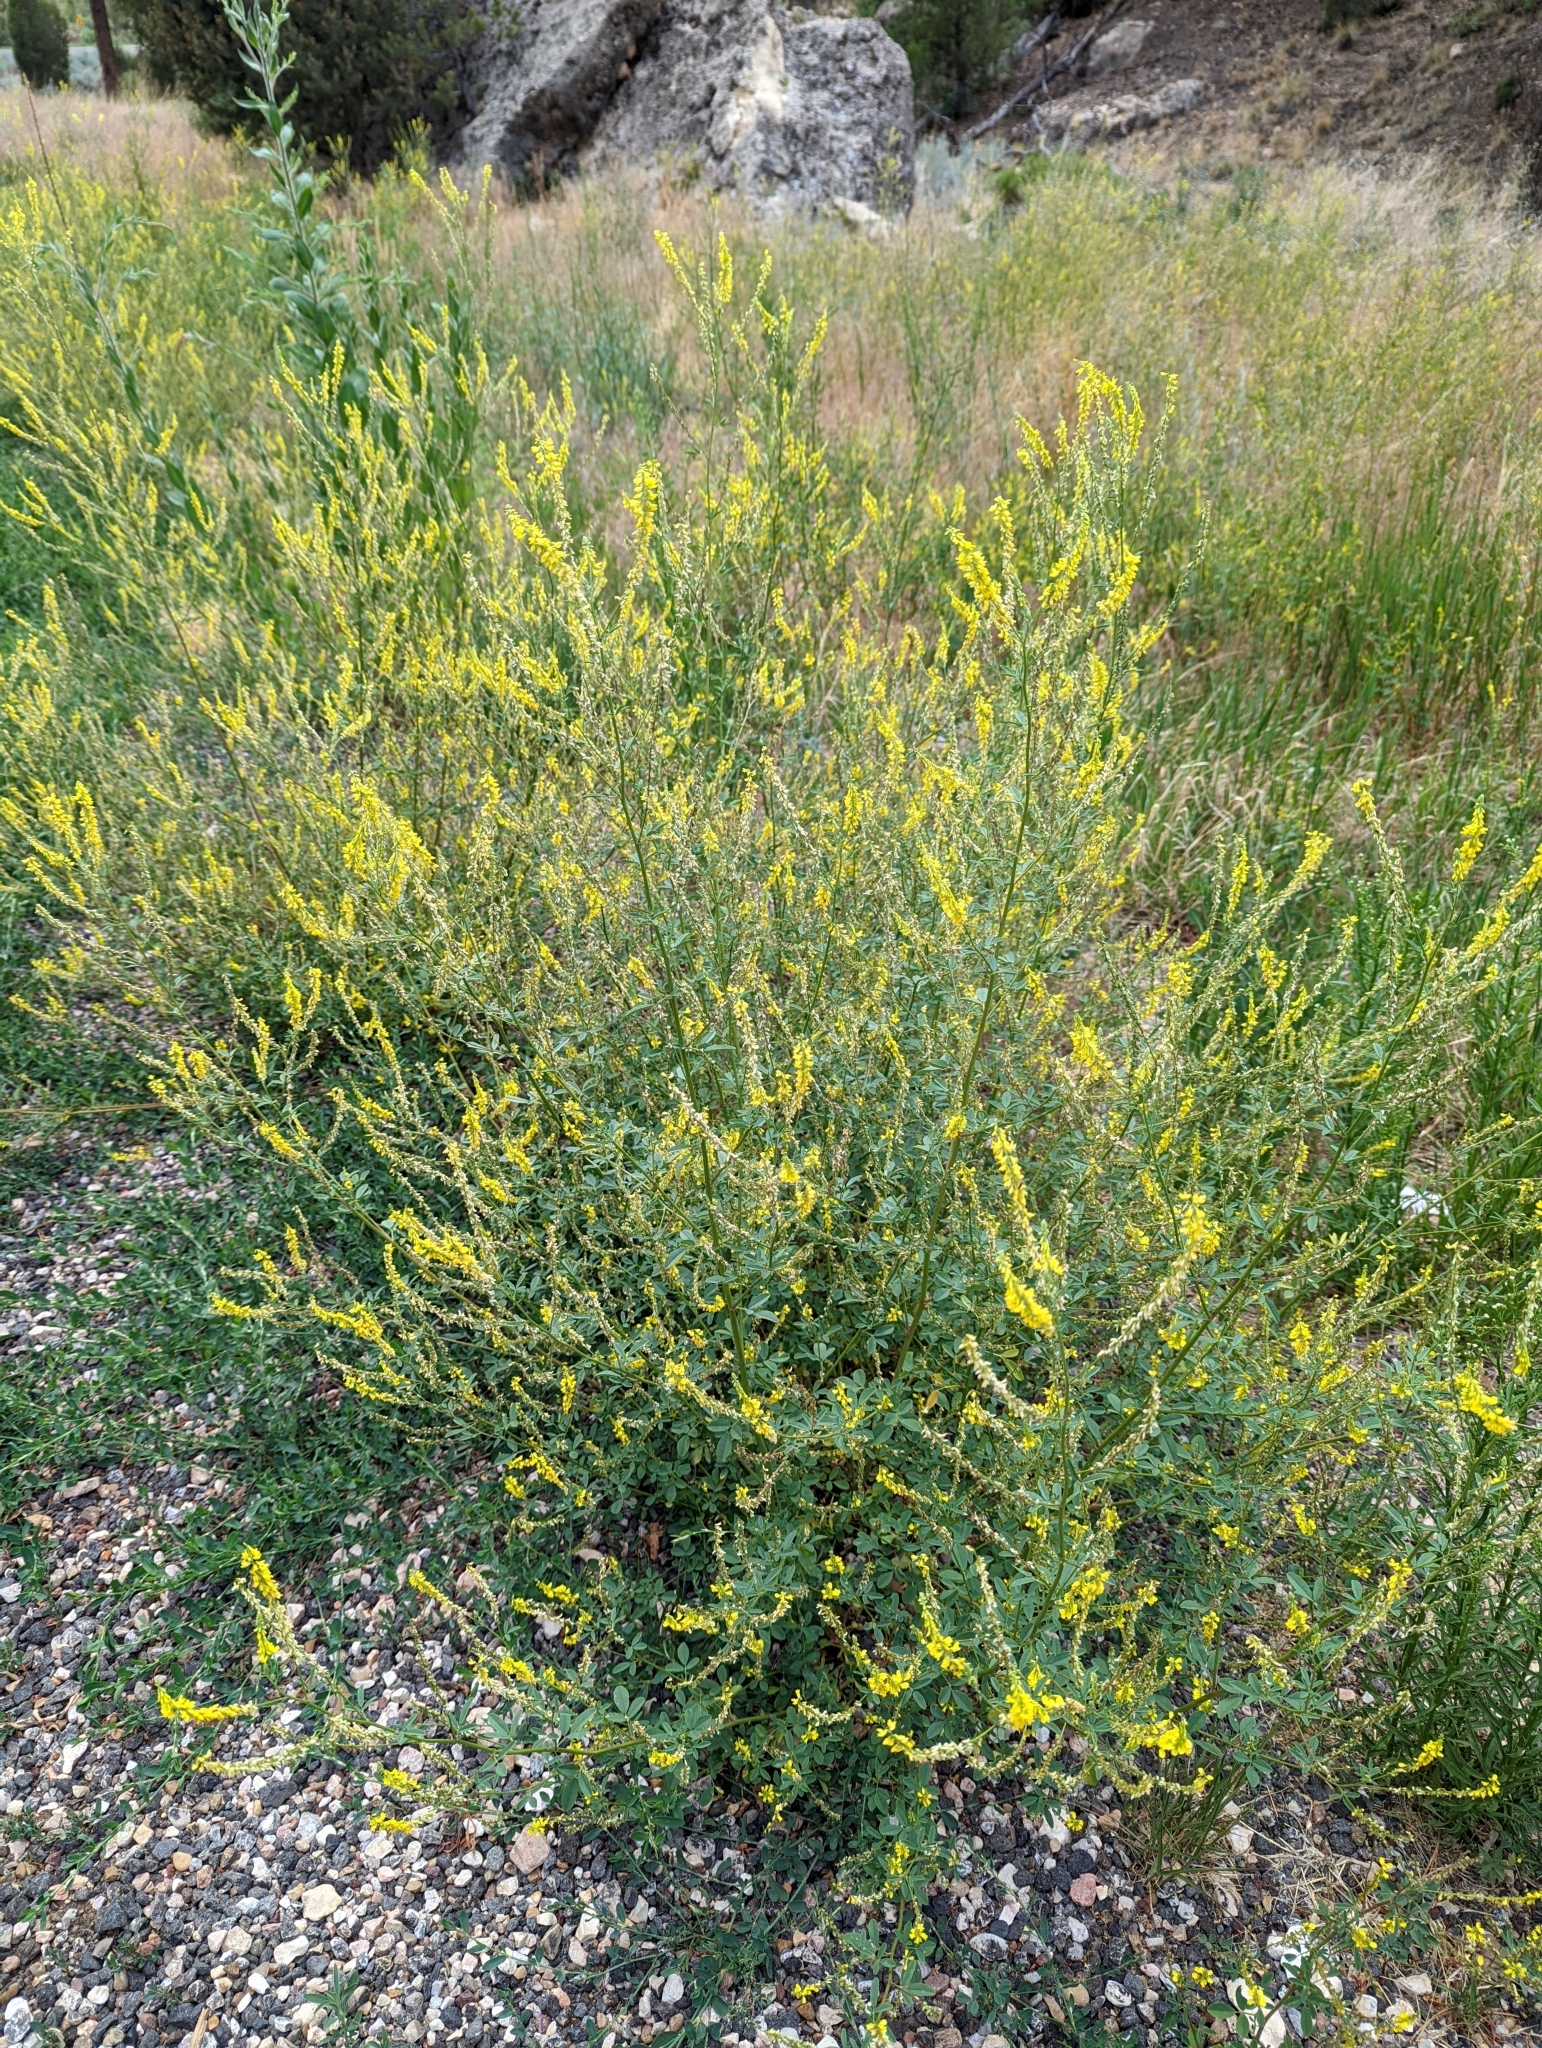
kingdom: Plantae
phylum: Tracheophyta
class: Magnoliopsida
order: Fabales
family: Fabaceae
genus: Melilotus
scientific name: Melilotus officinalis
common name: Sweetclover
